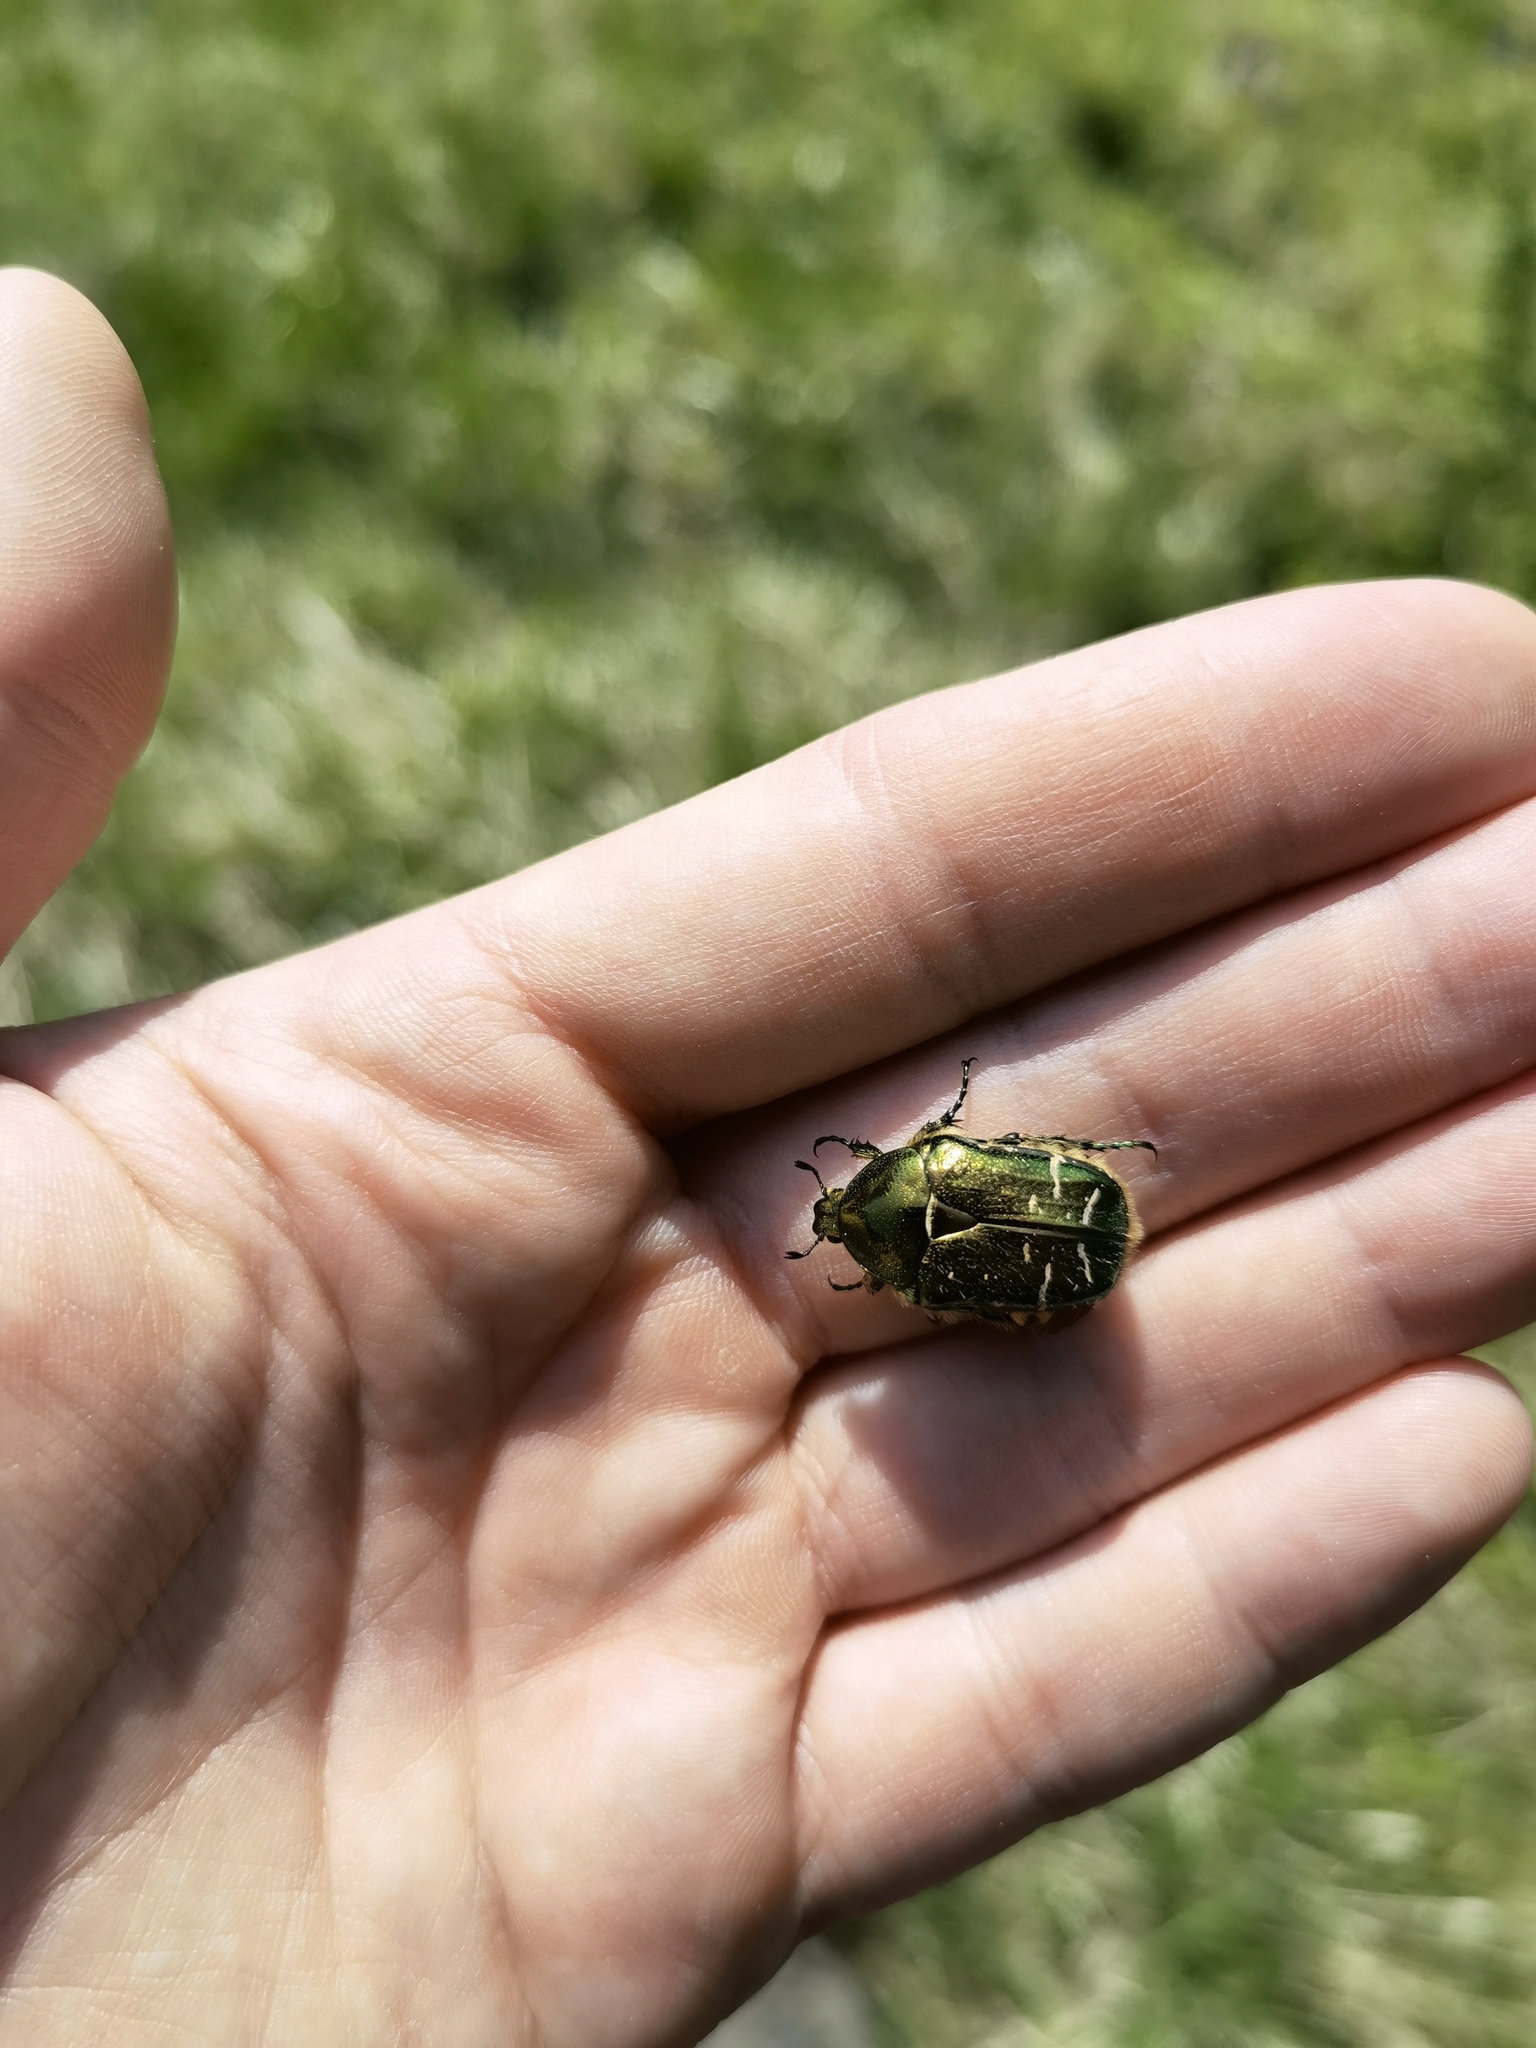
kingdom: Animalia
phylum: Arthropoda
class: Insecta
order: Coleoptera
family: Scarabaeidae
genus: Cetonia
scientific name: Cetonia aurata
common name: Rose chafer
